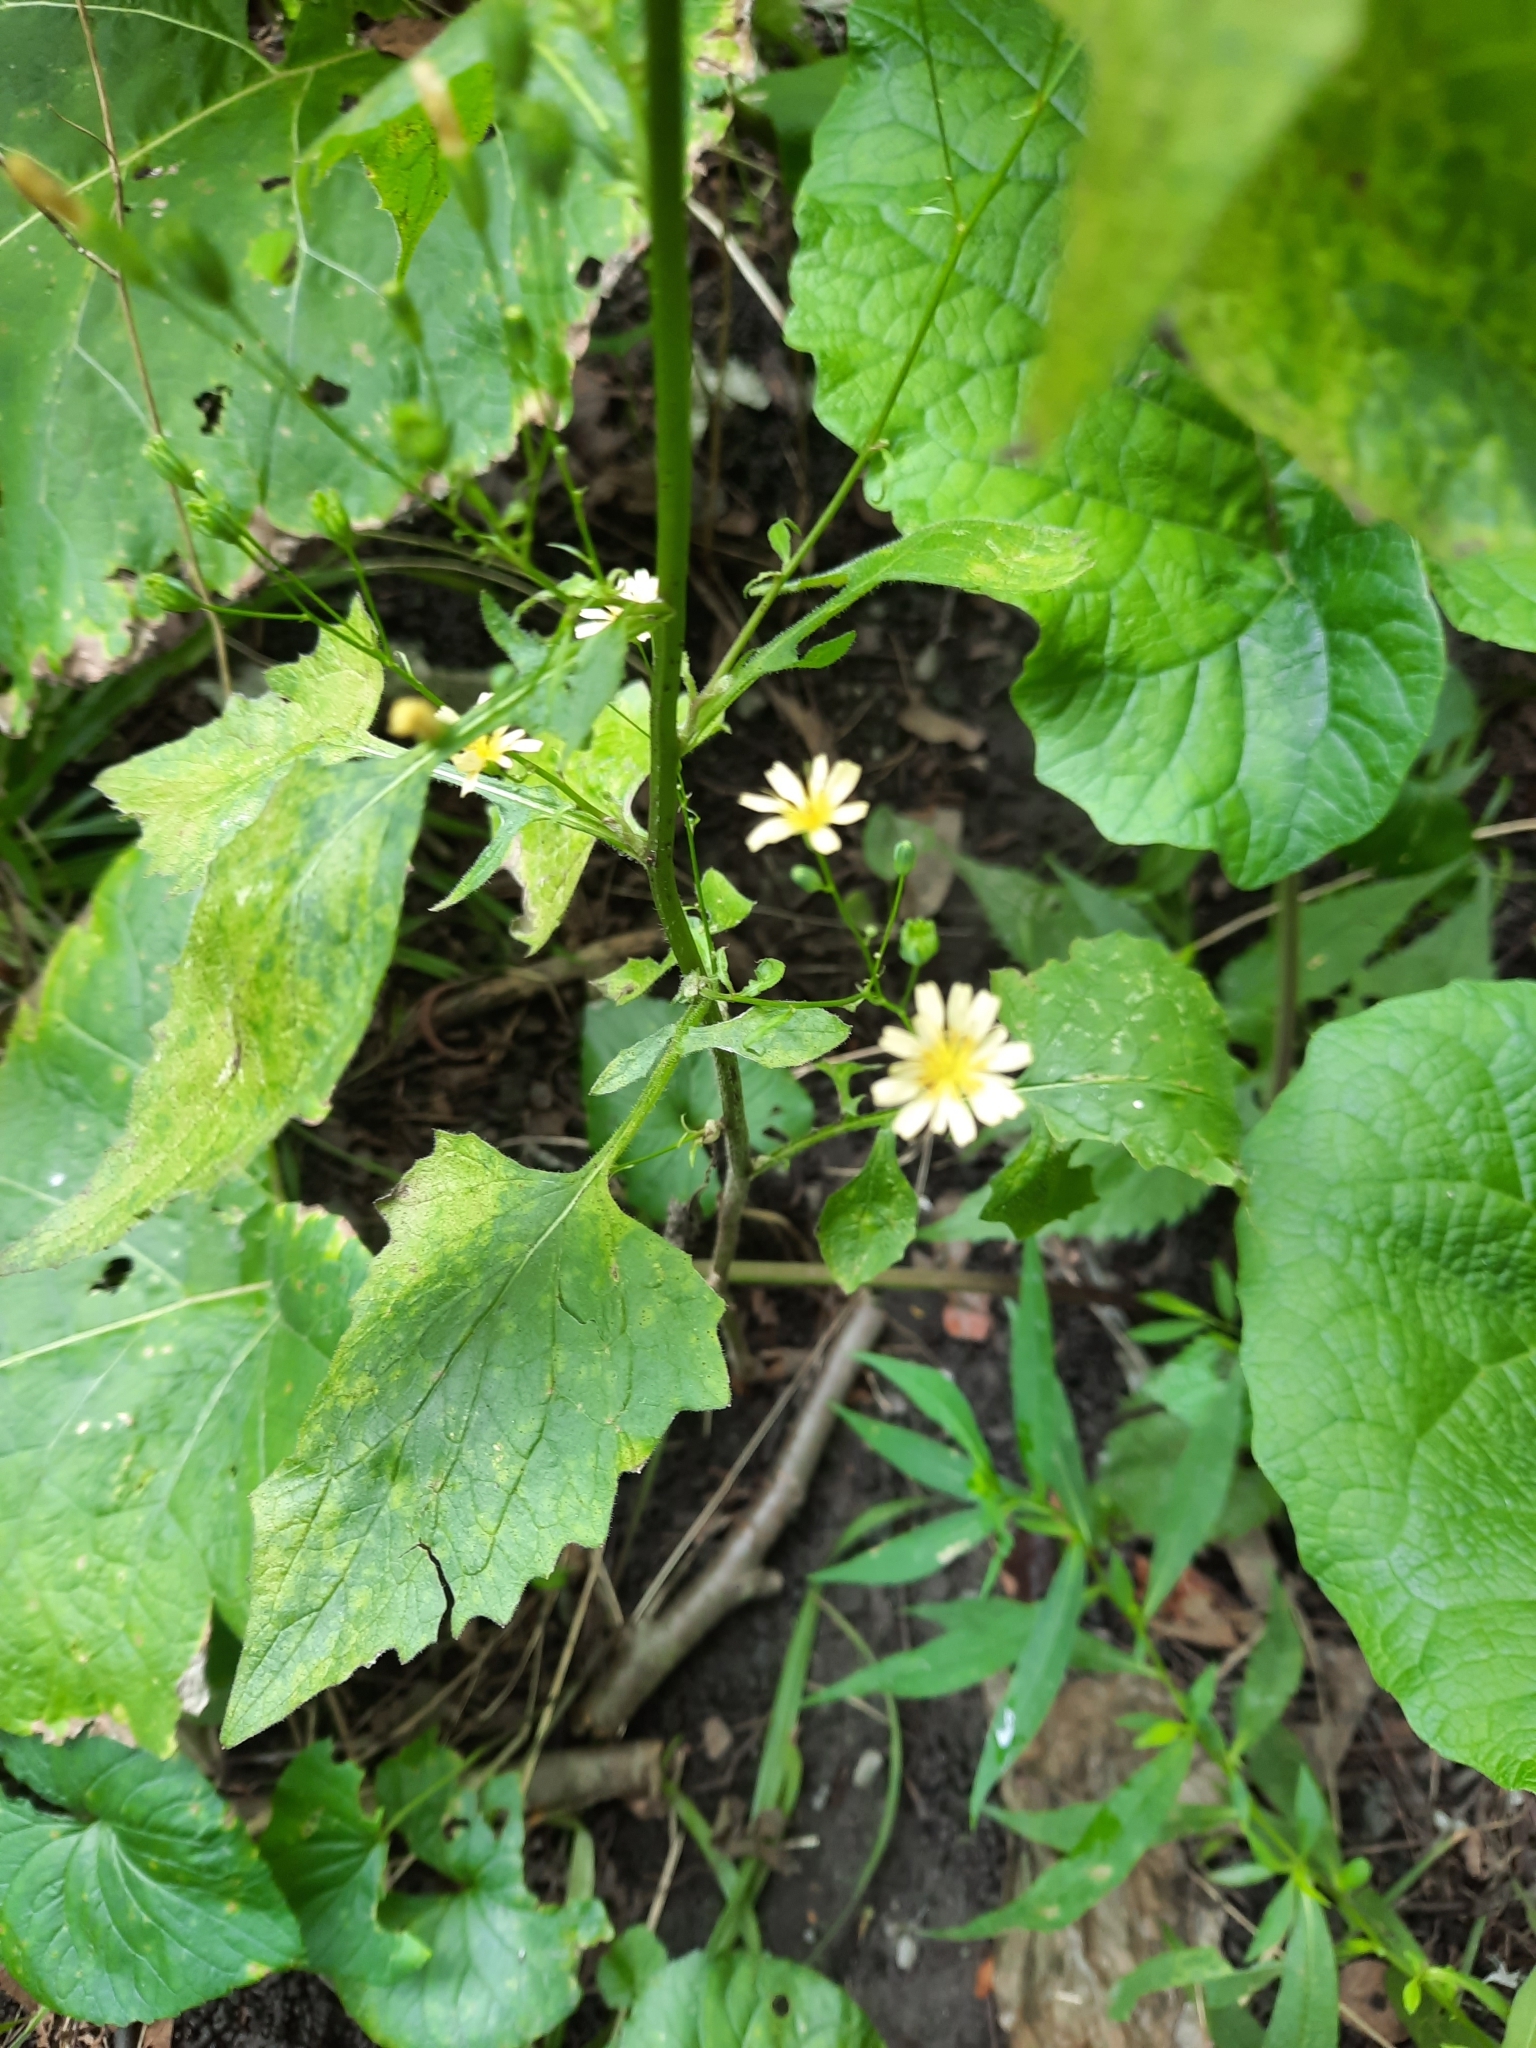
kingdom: Plantae
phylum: Tracheophyta
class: Magnoliopsida
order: Asterales
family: Asteraceae
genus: Lapsana
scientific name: Lapsana communis
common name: Nipplewort
